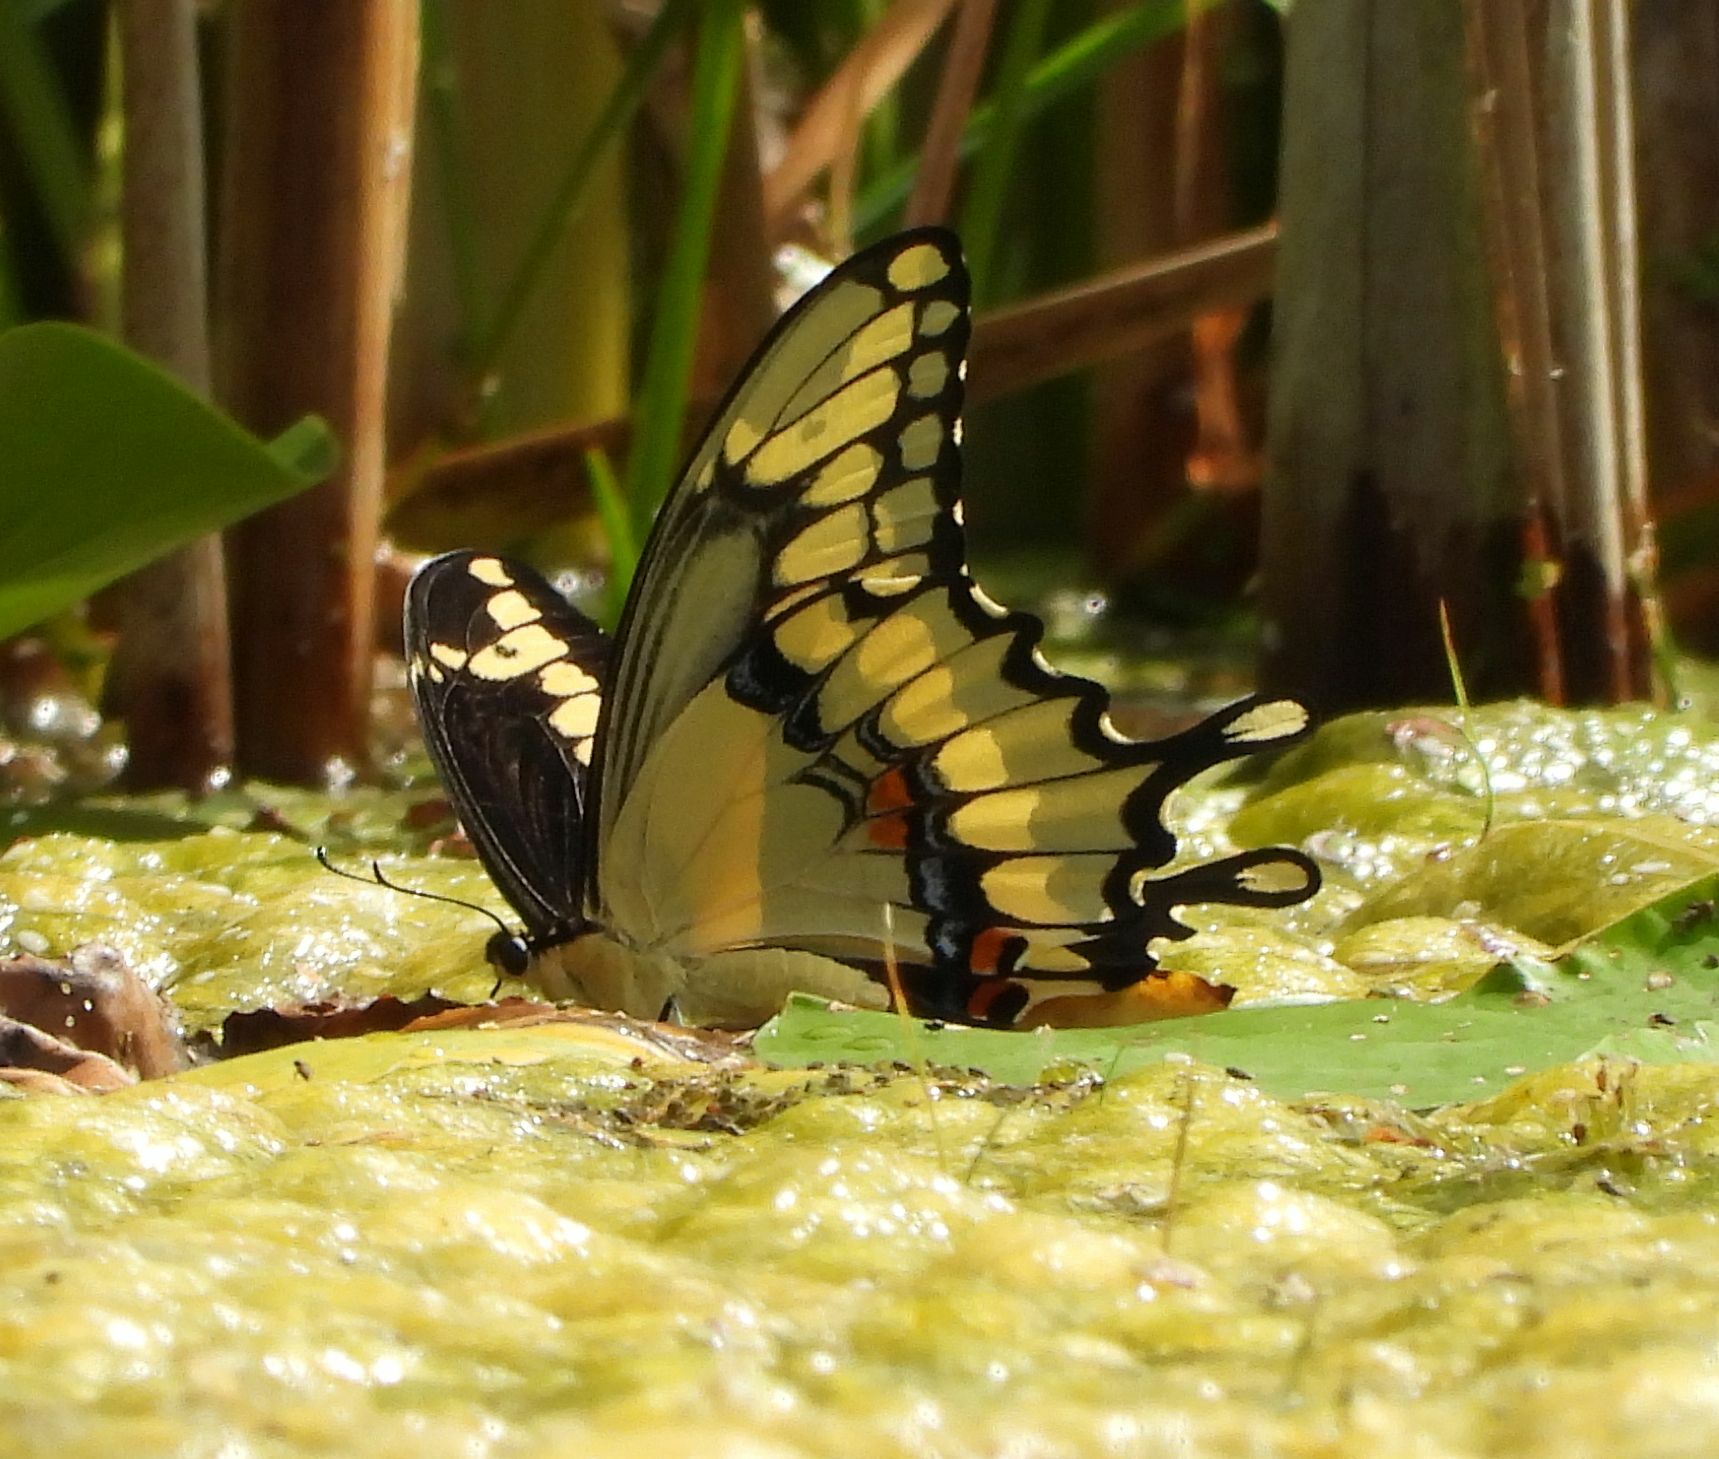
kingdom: Animalia
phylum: Arthropoda
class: Insecta
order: Lepidoptera
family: Papilionidae
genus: Papilio
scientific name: Papilio cresphontes
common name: Giant swallowtail
